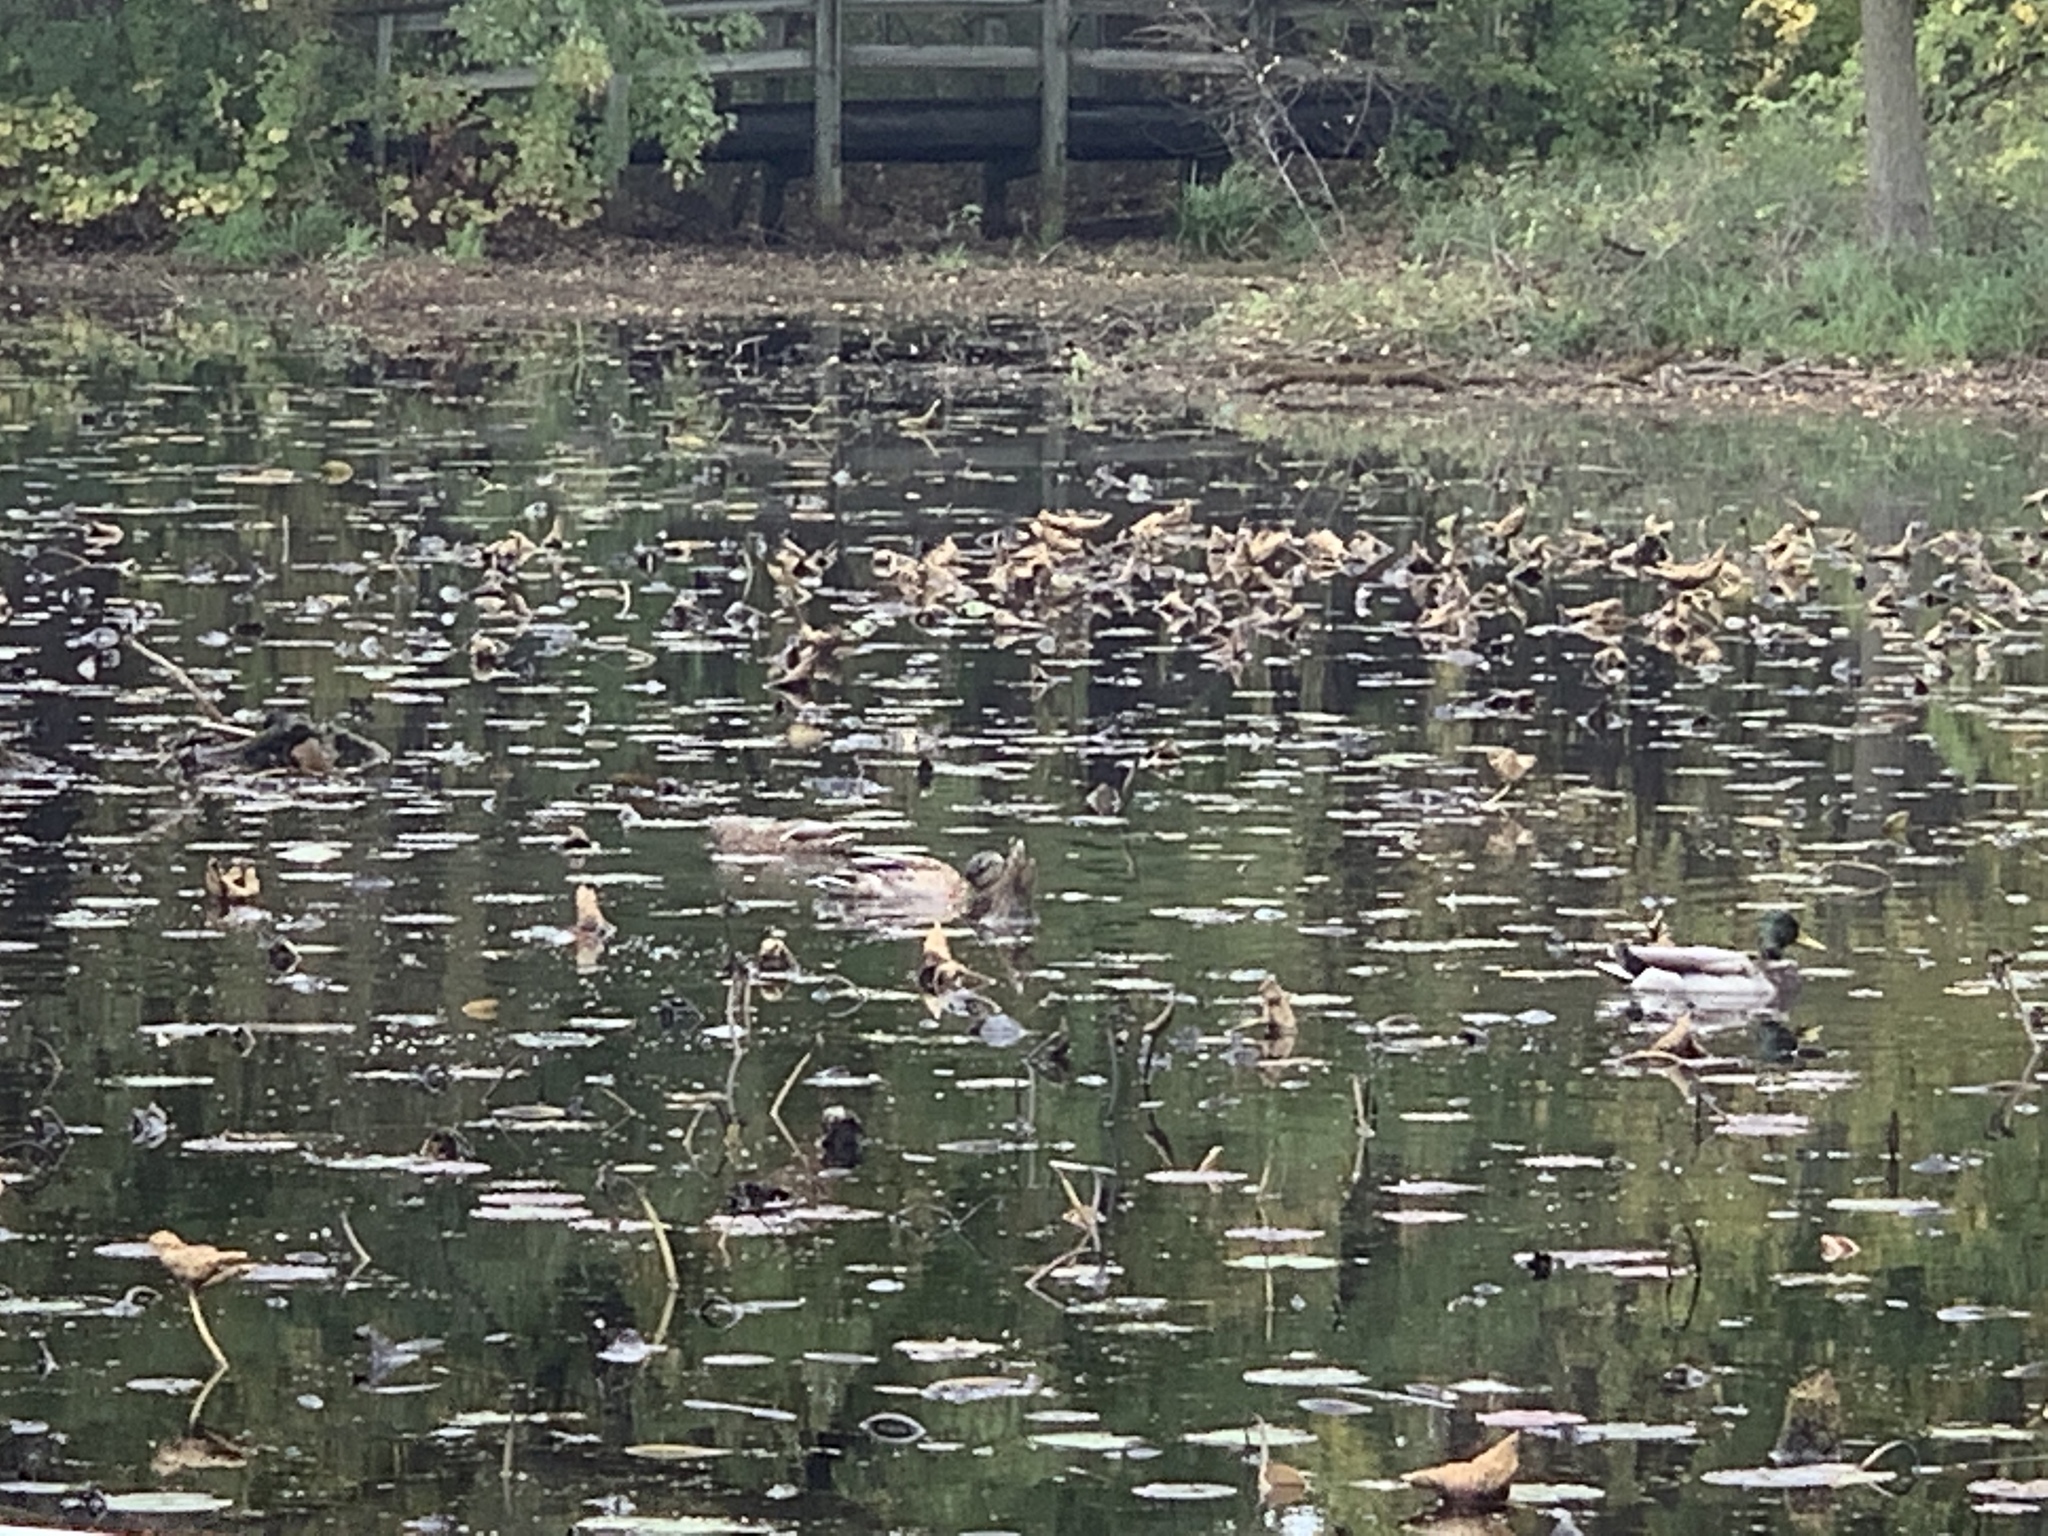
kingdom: Animalia
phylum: Chordata
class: Aves
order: Anseriformes
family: Anatidae
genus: Anas
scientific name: Anas platyrhynchos
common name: Mallard
